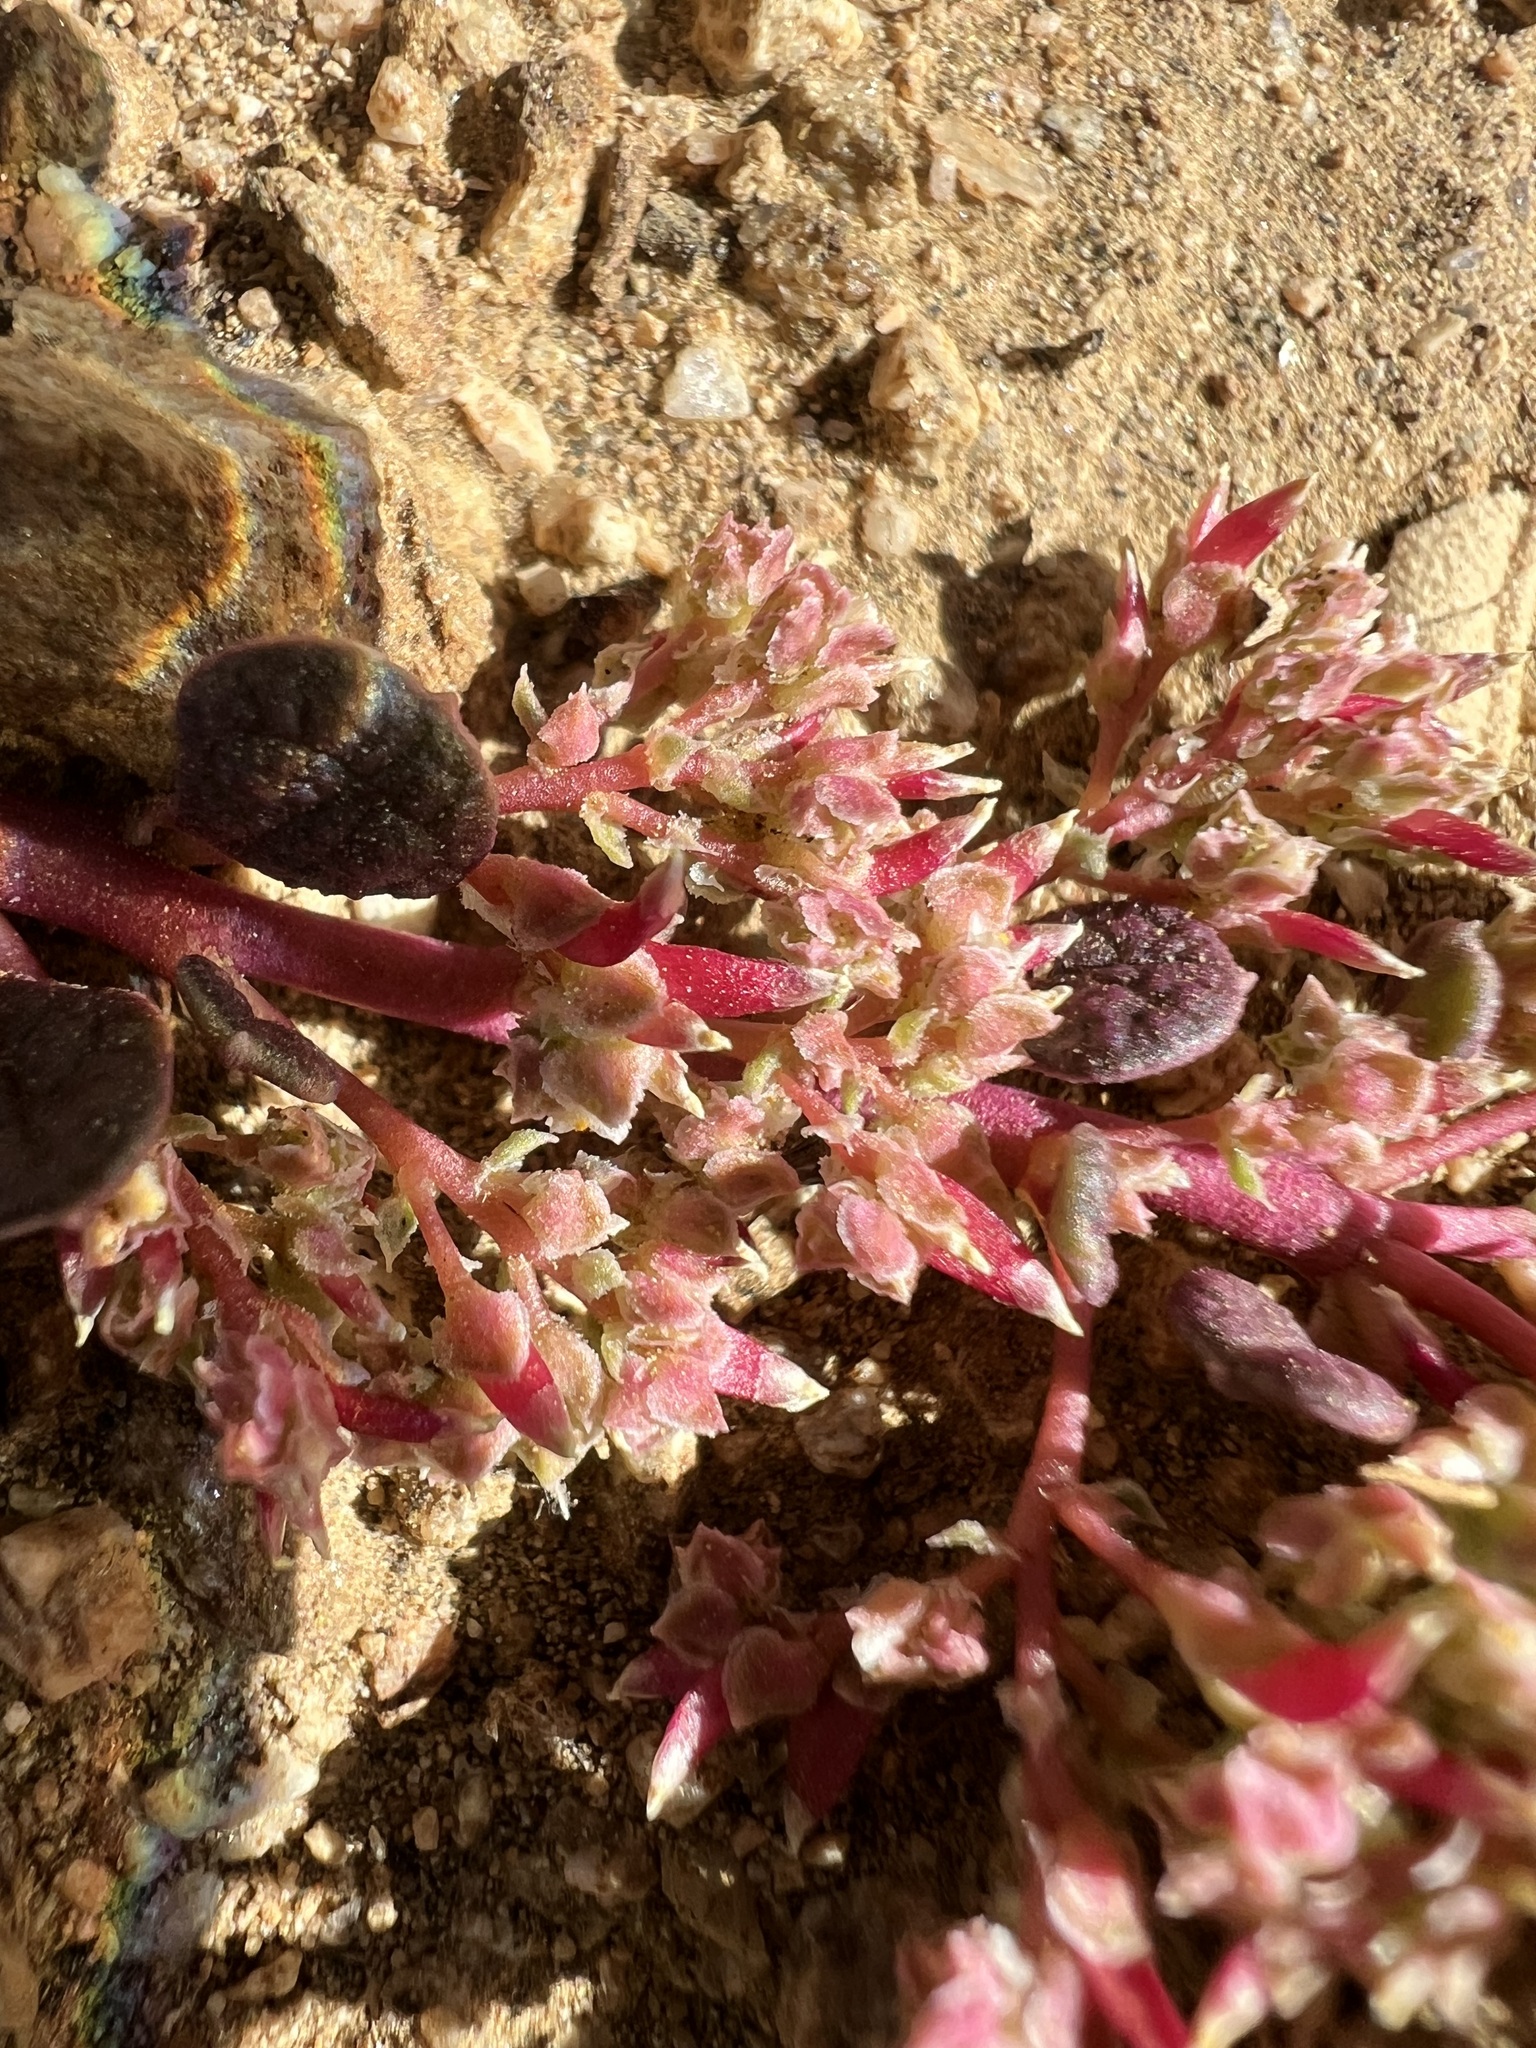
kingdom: Plantae
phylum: Tracheophyta
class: Magnoliopsida
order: Caryophyllales
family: Montiaceae
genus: Calyptridium
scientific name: Calyptridium monandrum
